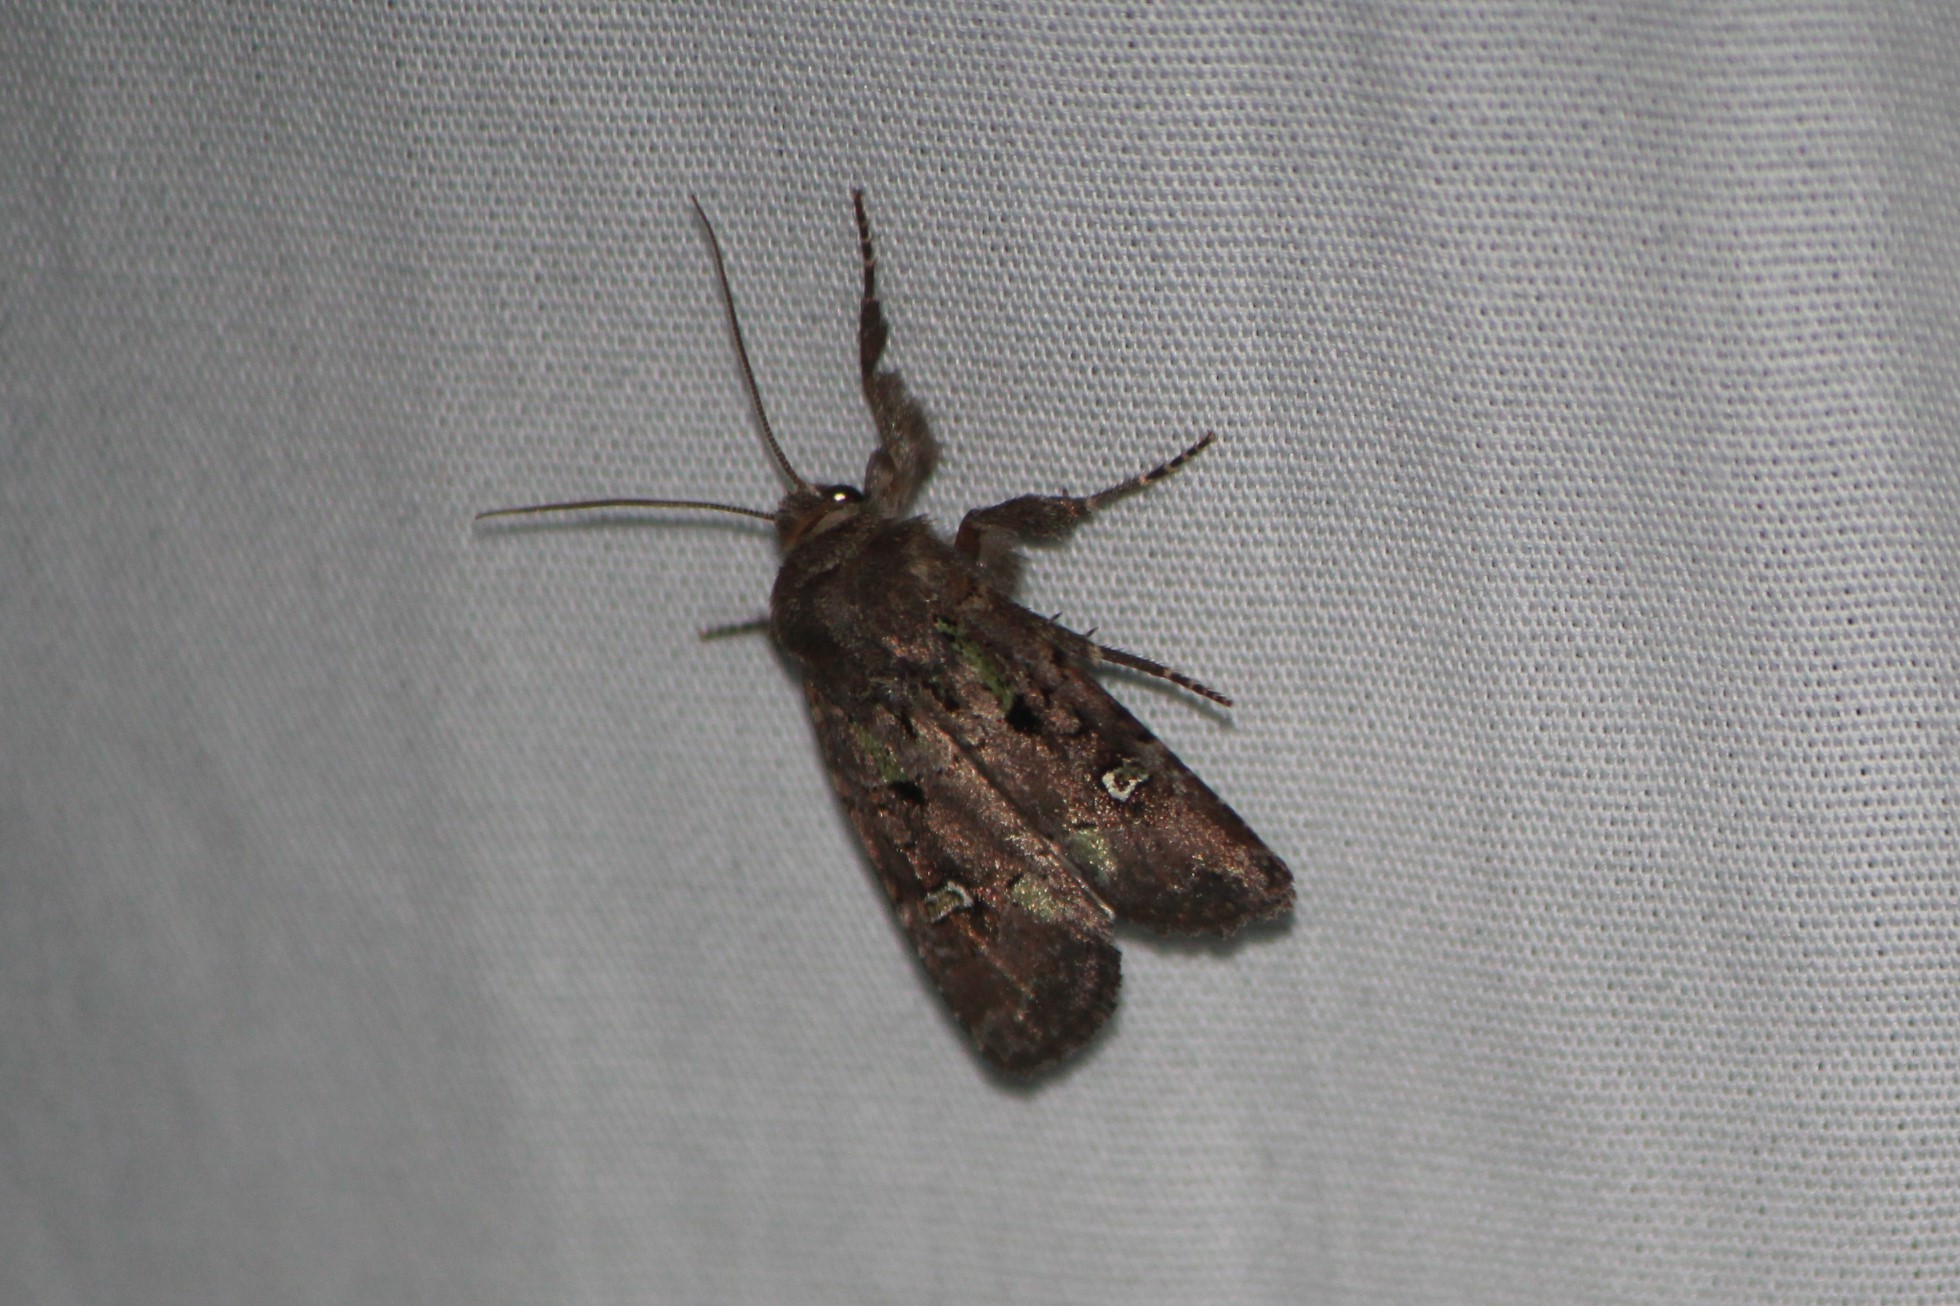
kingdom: Animalia
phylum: Arthropoda
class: Insecta
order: Lepidoptera
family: Noctuidae
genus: Lacinipolia
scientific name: Lacinipolia renigera
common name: Kidney-spotted minor
